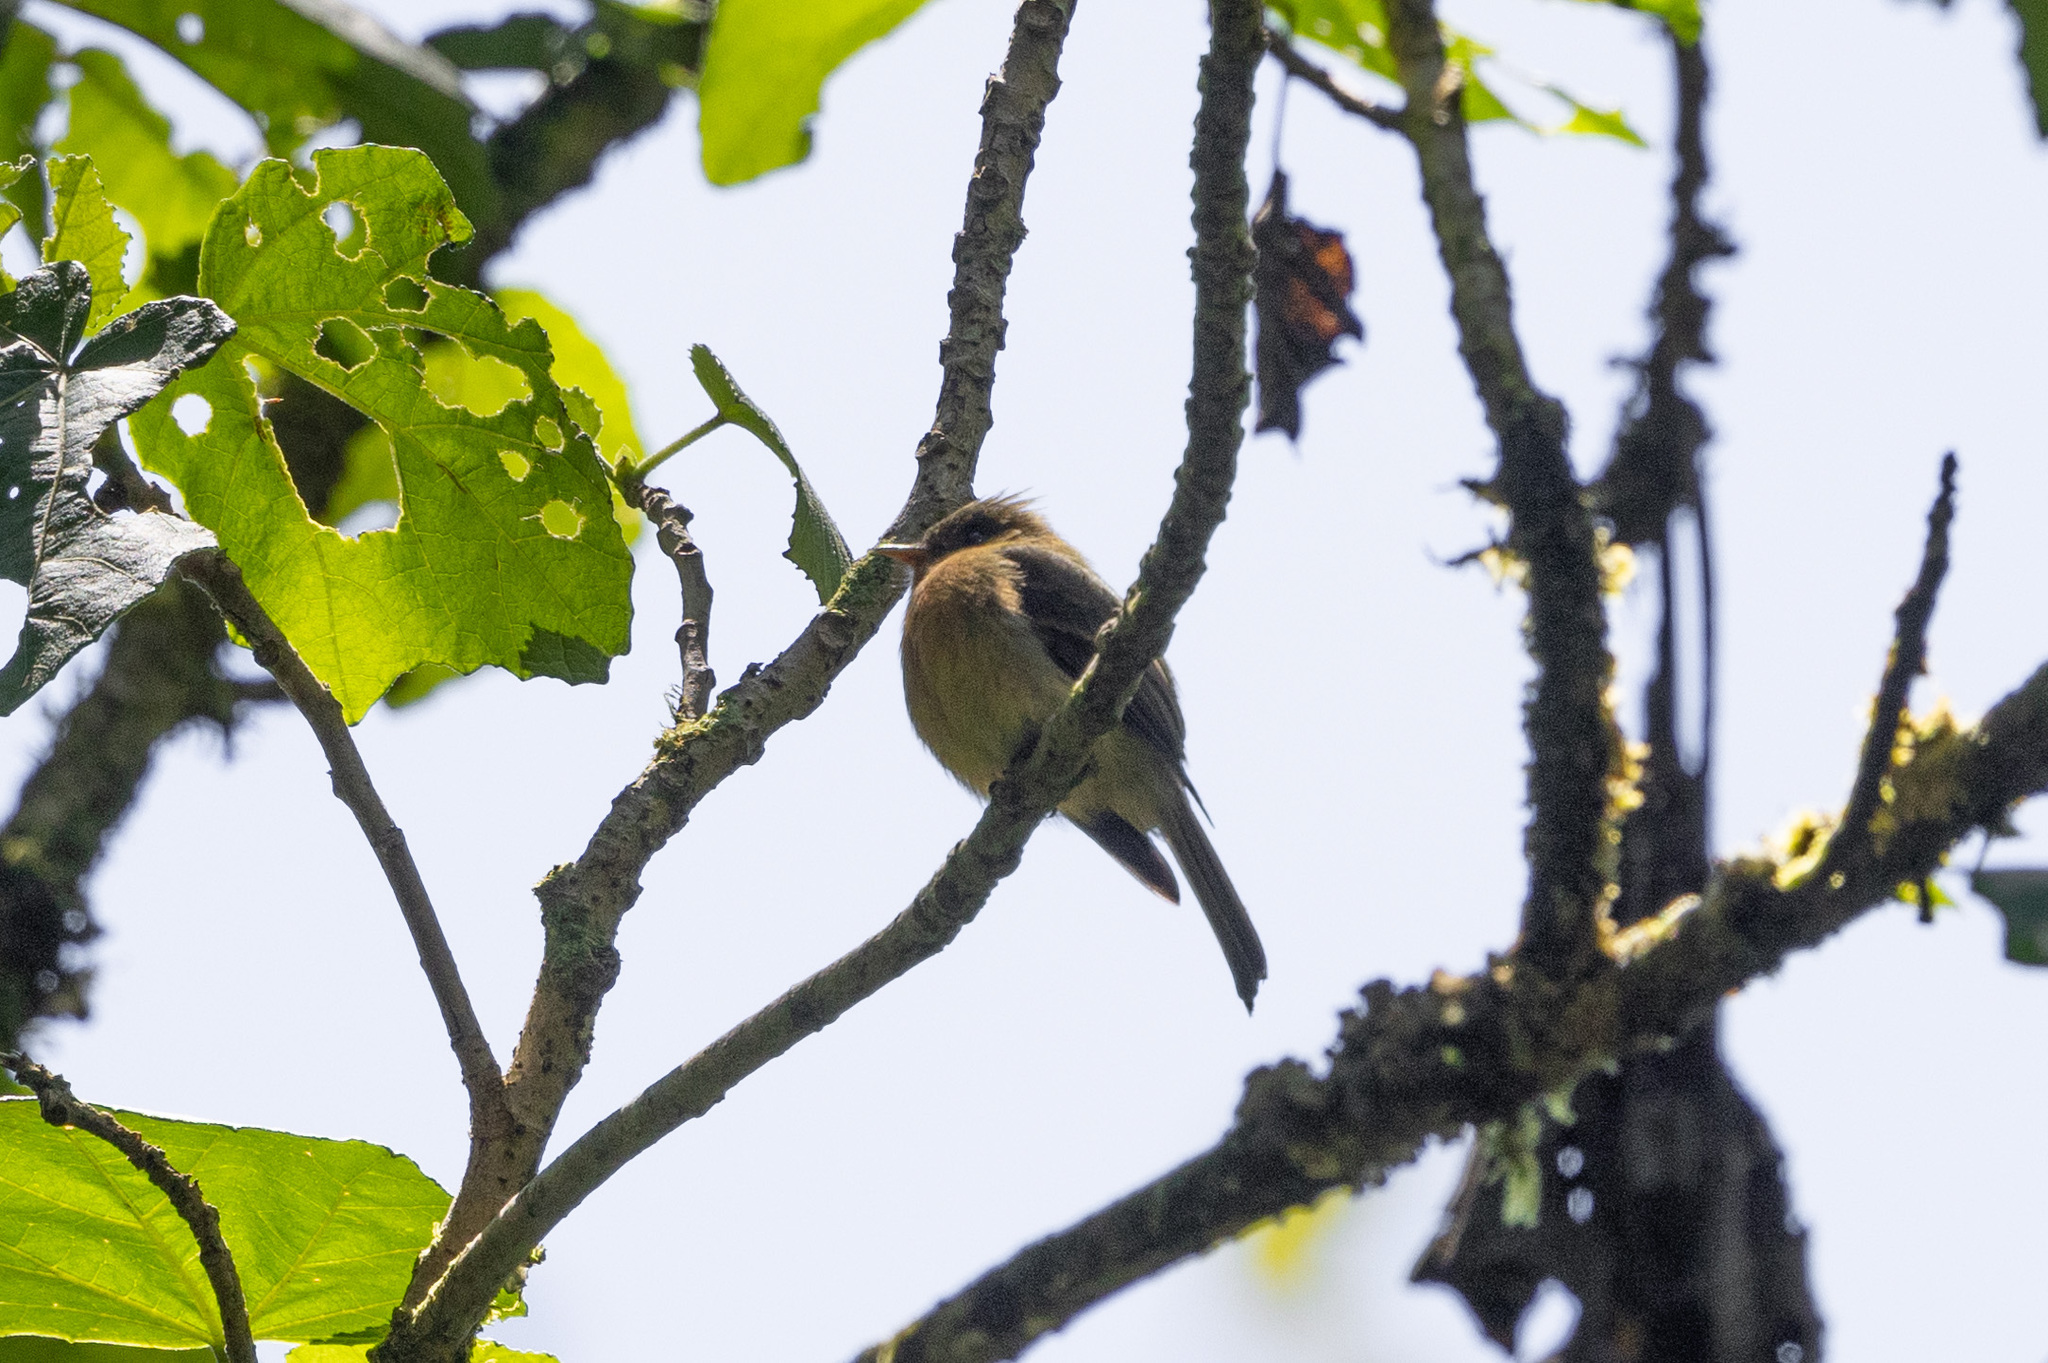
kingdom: Animalia
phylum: Chordata
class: Aves
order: Passeriformes
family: Tyrannidae
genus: Mitrephanes
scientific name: Mitrephanes phaeocercus
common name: Northern tufted flycatcher
